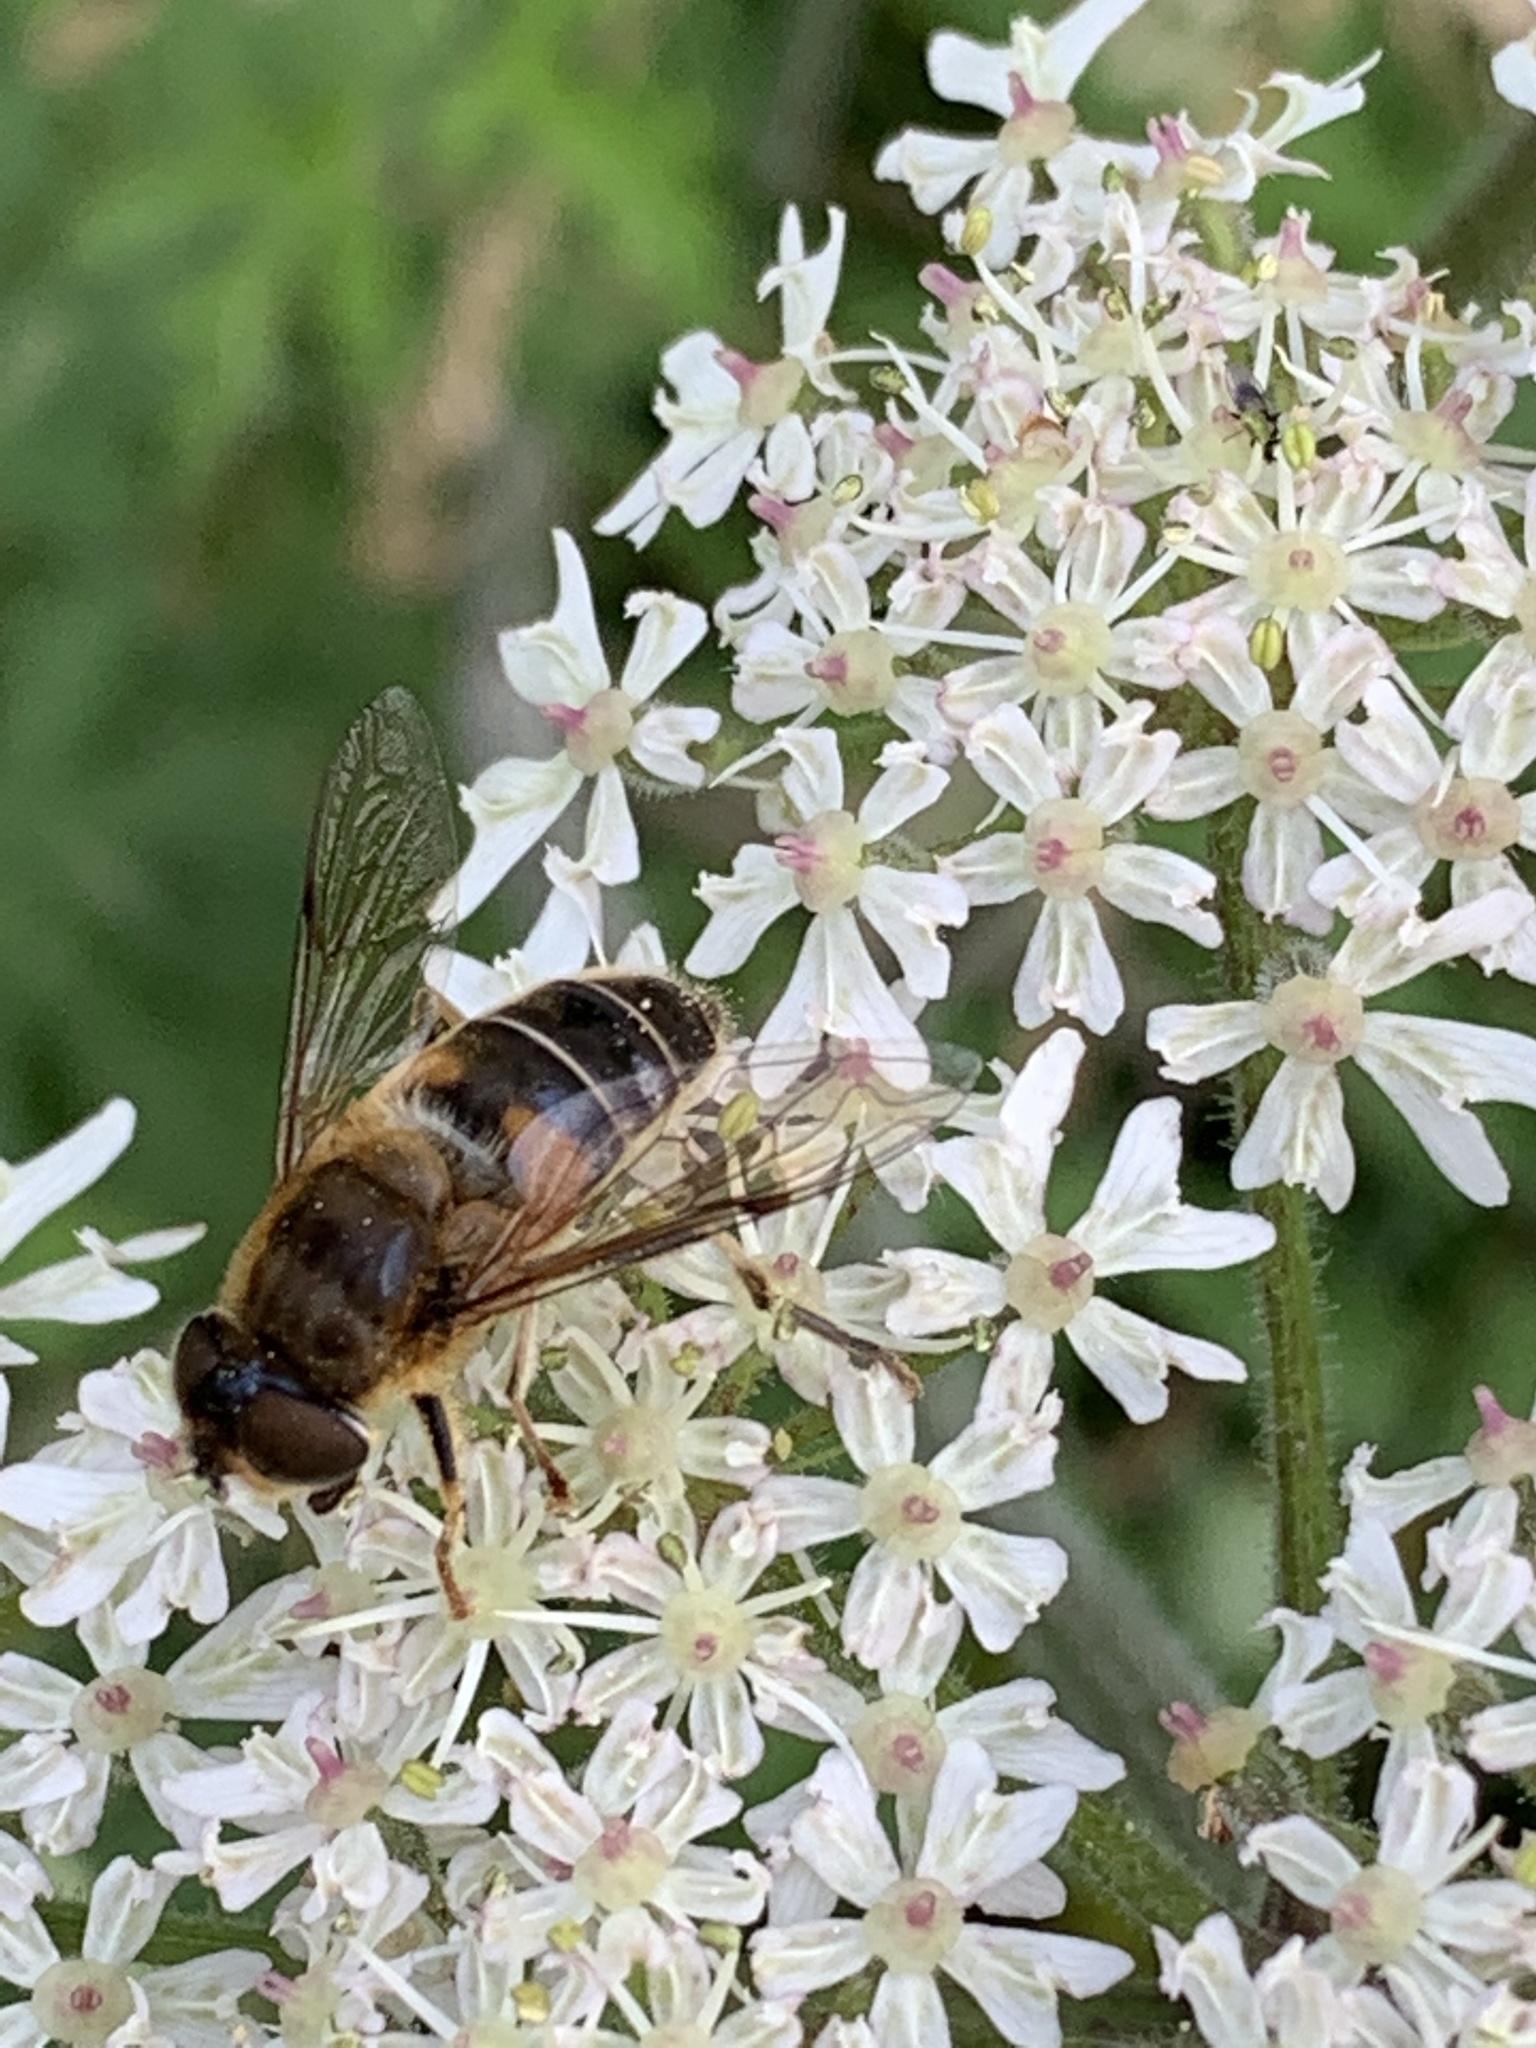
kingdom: Animalia
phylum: Arthropoda
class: Insecta
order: Diptera
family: Syrphidae
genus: Eristalis
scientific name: Eristalis pertinax
